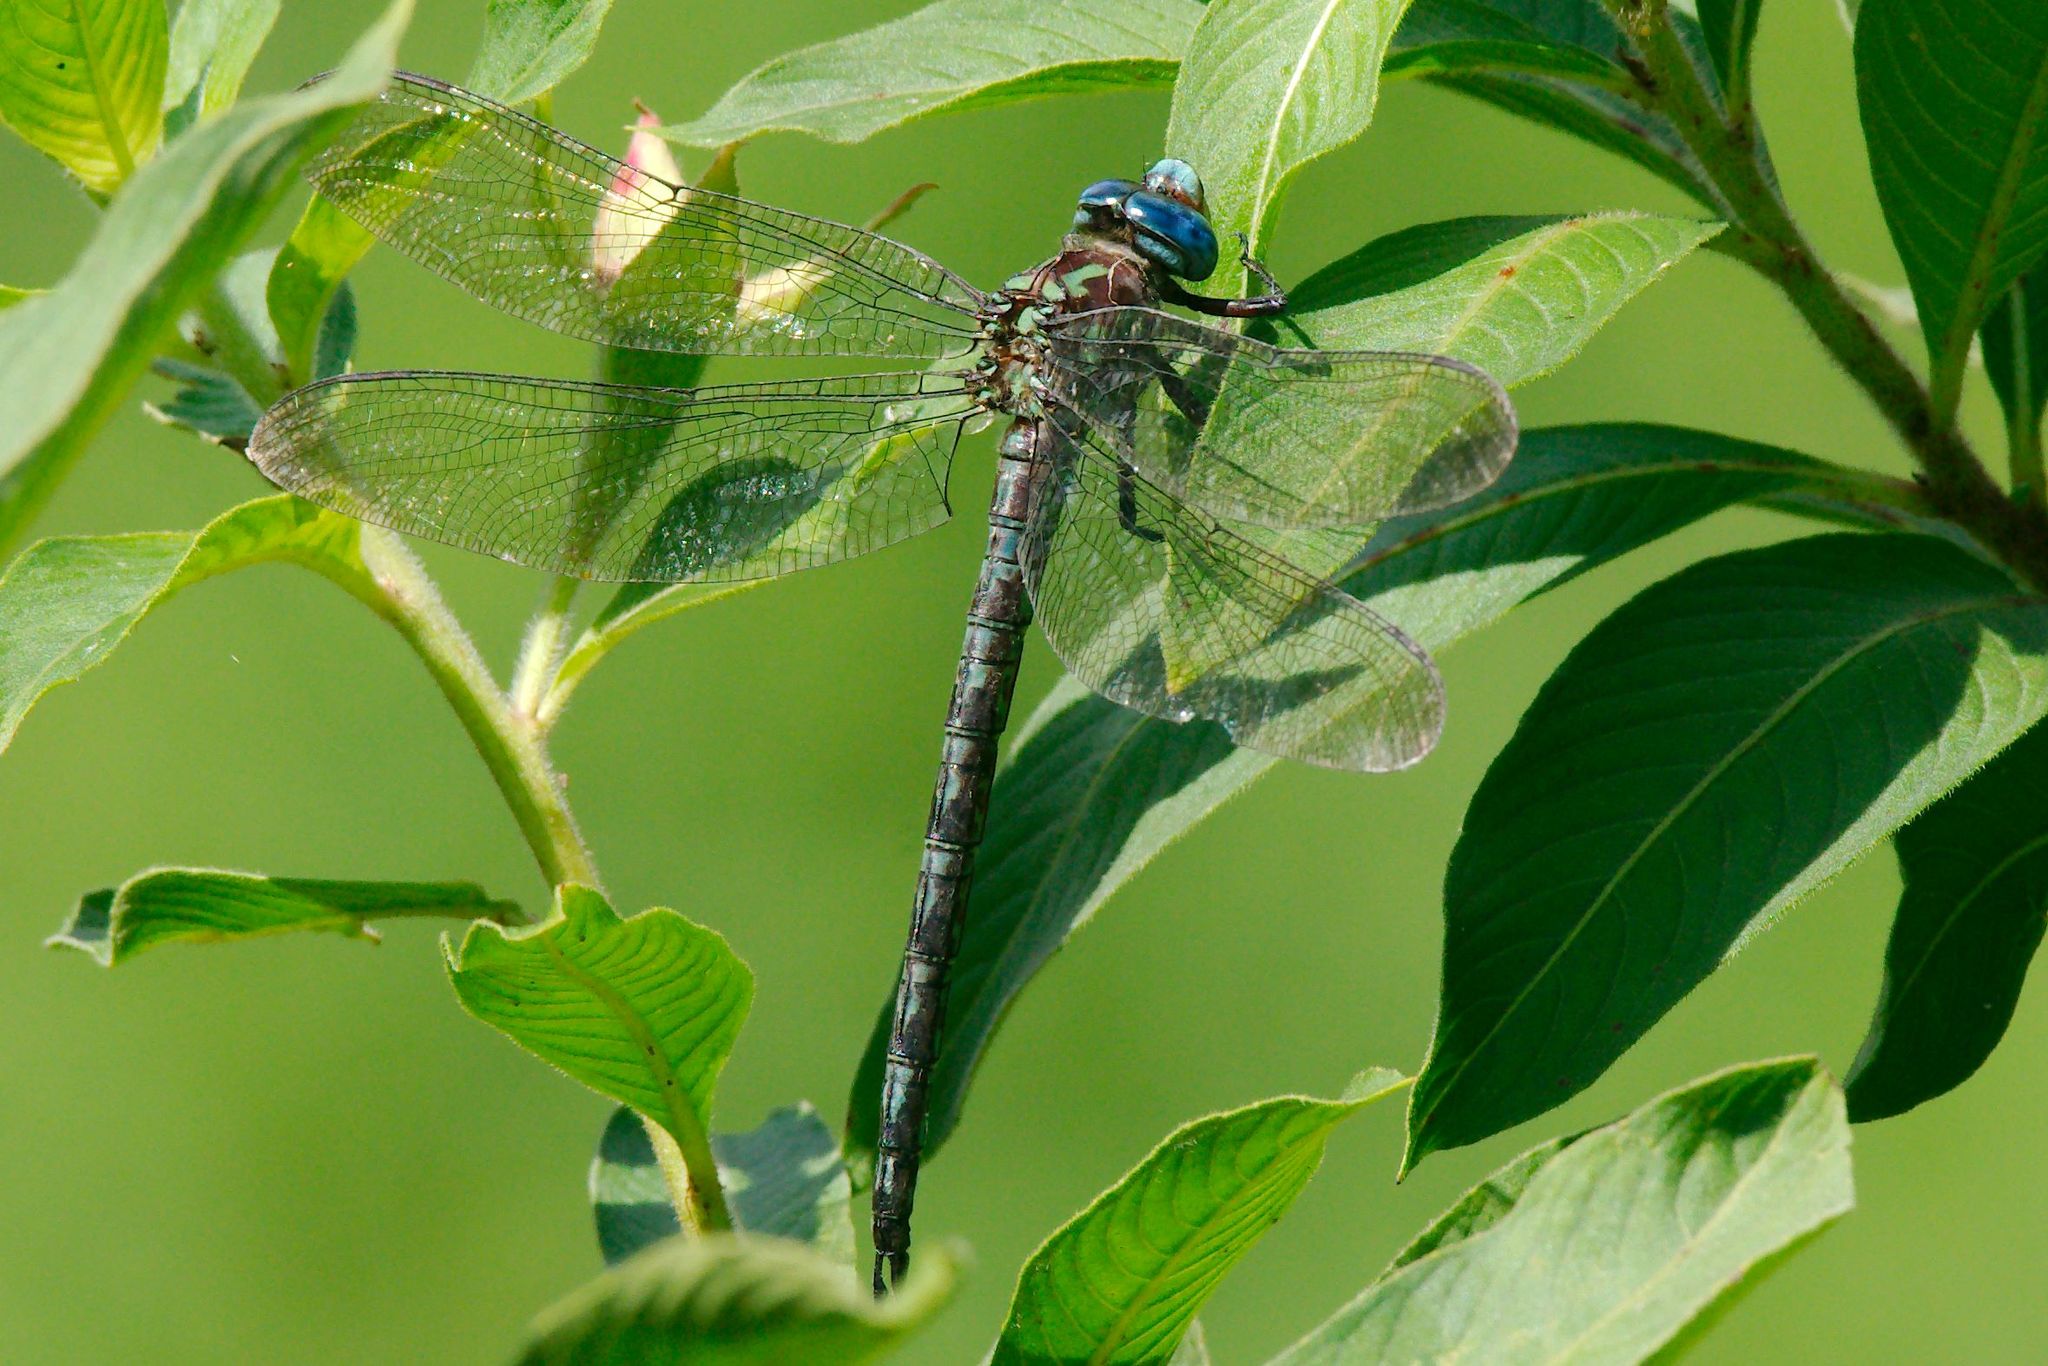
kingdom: Animalia
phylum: Arthropoda
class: Insecta
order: Odonata
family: Aeshnidae
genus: Nasiaeschna
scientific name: Nasiaeschna pentacantha
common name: Cyrano darner
